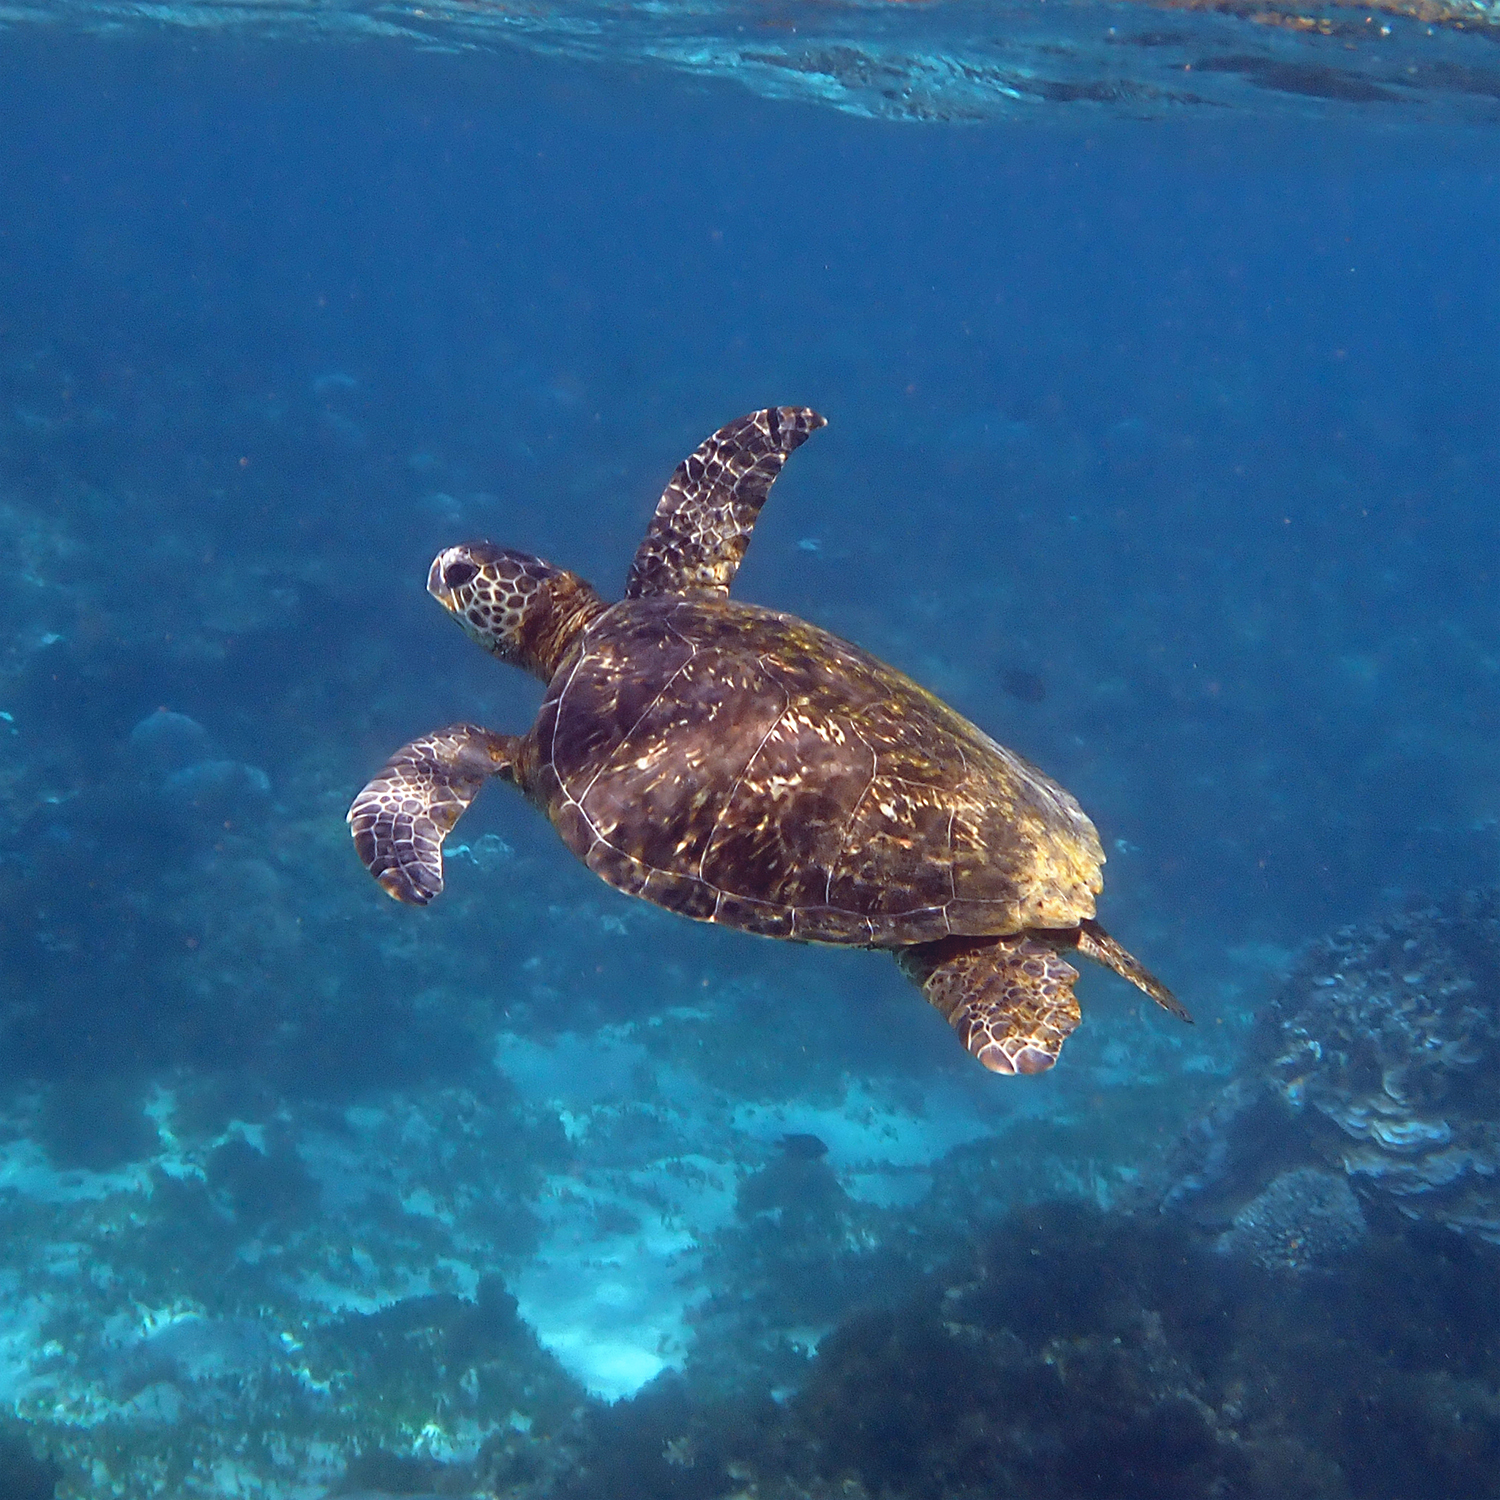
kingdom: Animalia
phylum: Chordata
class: Testudines
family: Cheloniidae
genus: Chelonia
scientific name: Chelonia mydas
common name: Green turtle
